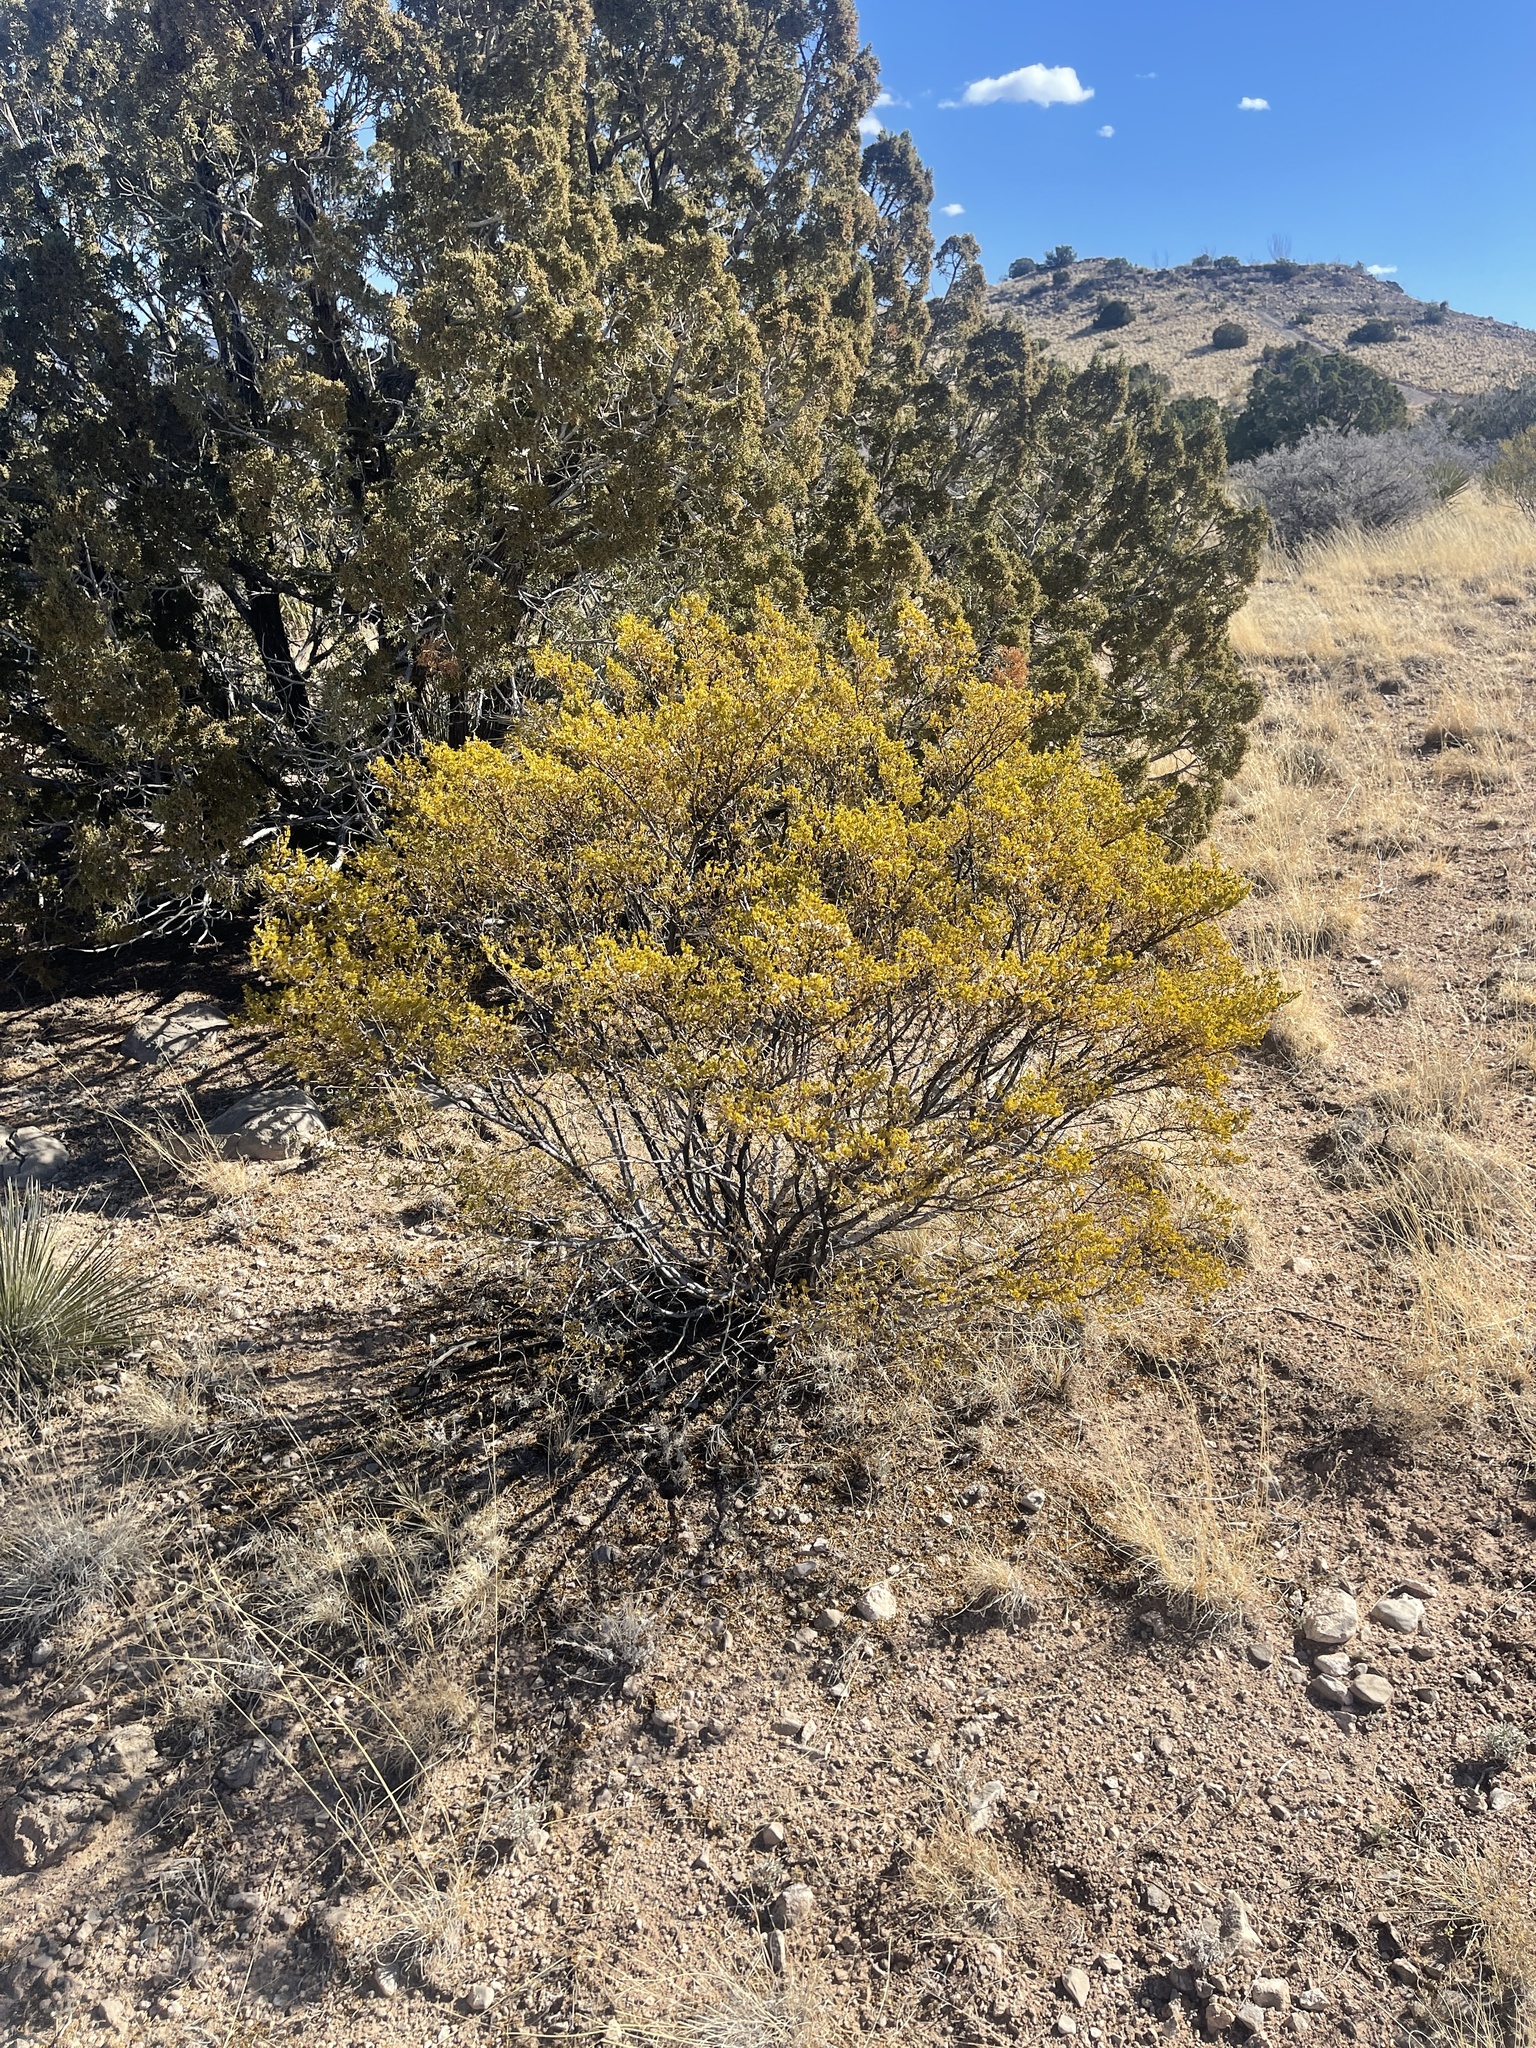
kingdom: Plantae
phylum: Tracheophyta
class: Magnoliopsida
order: Zygophyllales
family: Zygophyllaceae
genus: Larrea
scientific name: Larrea tridentata
